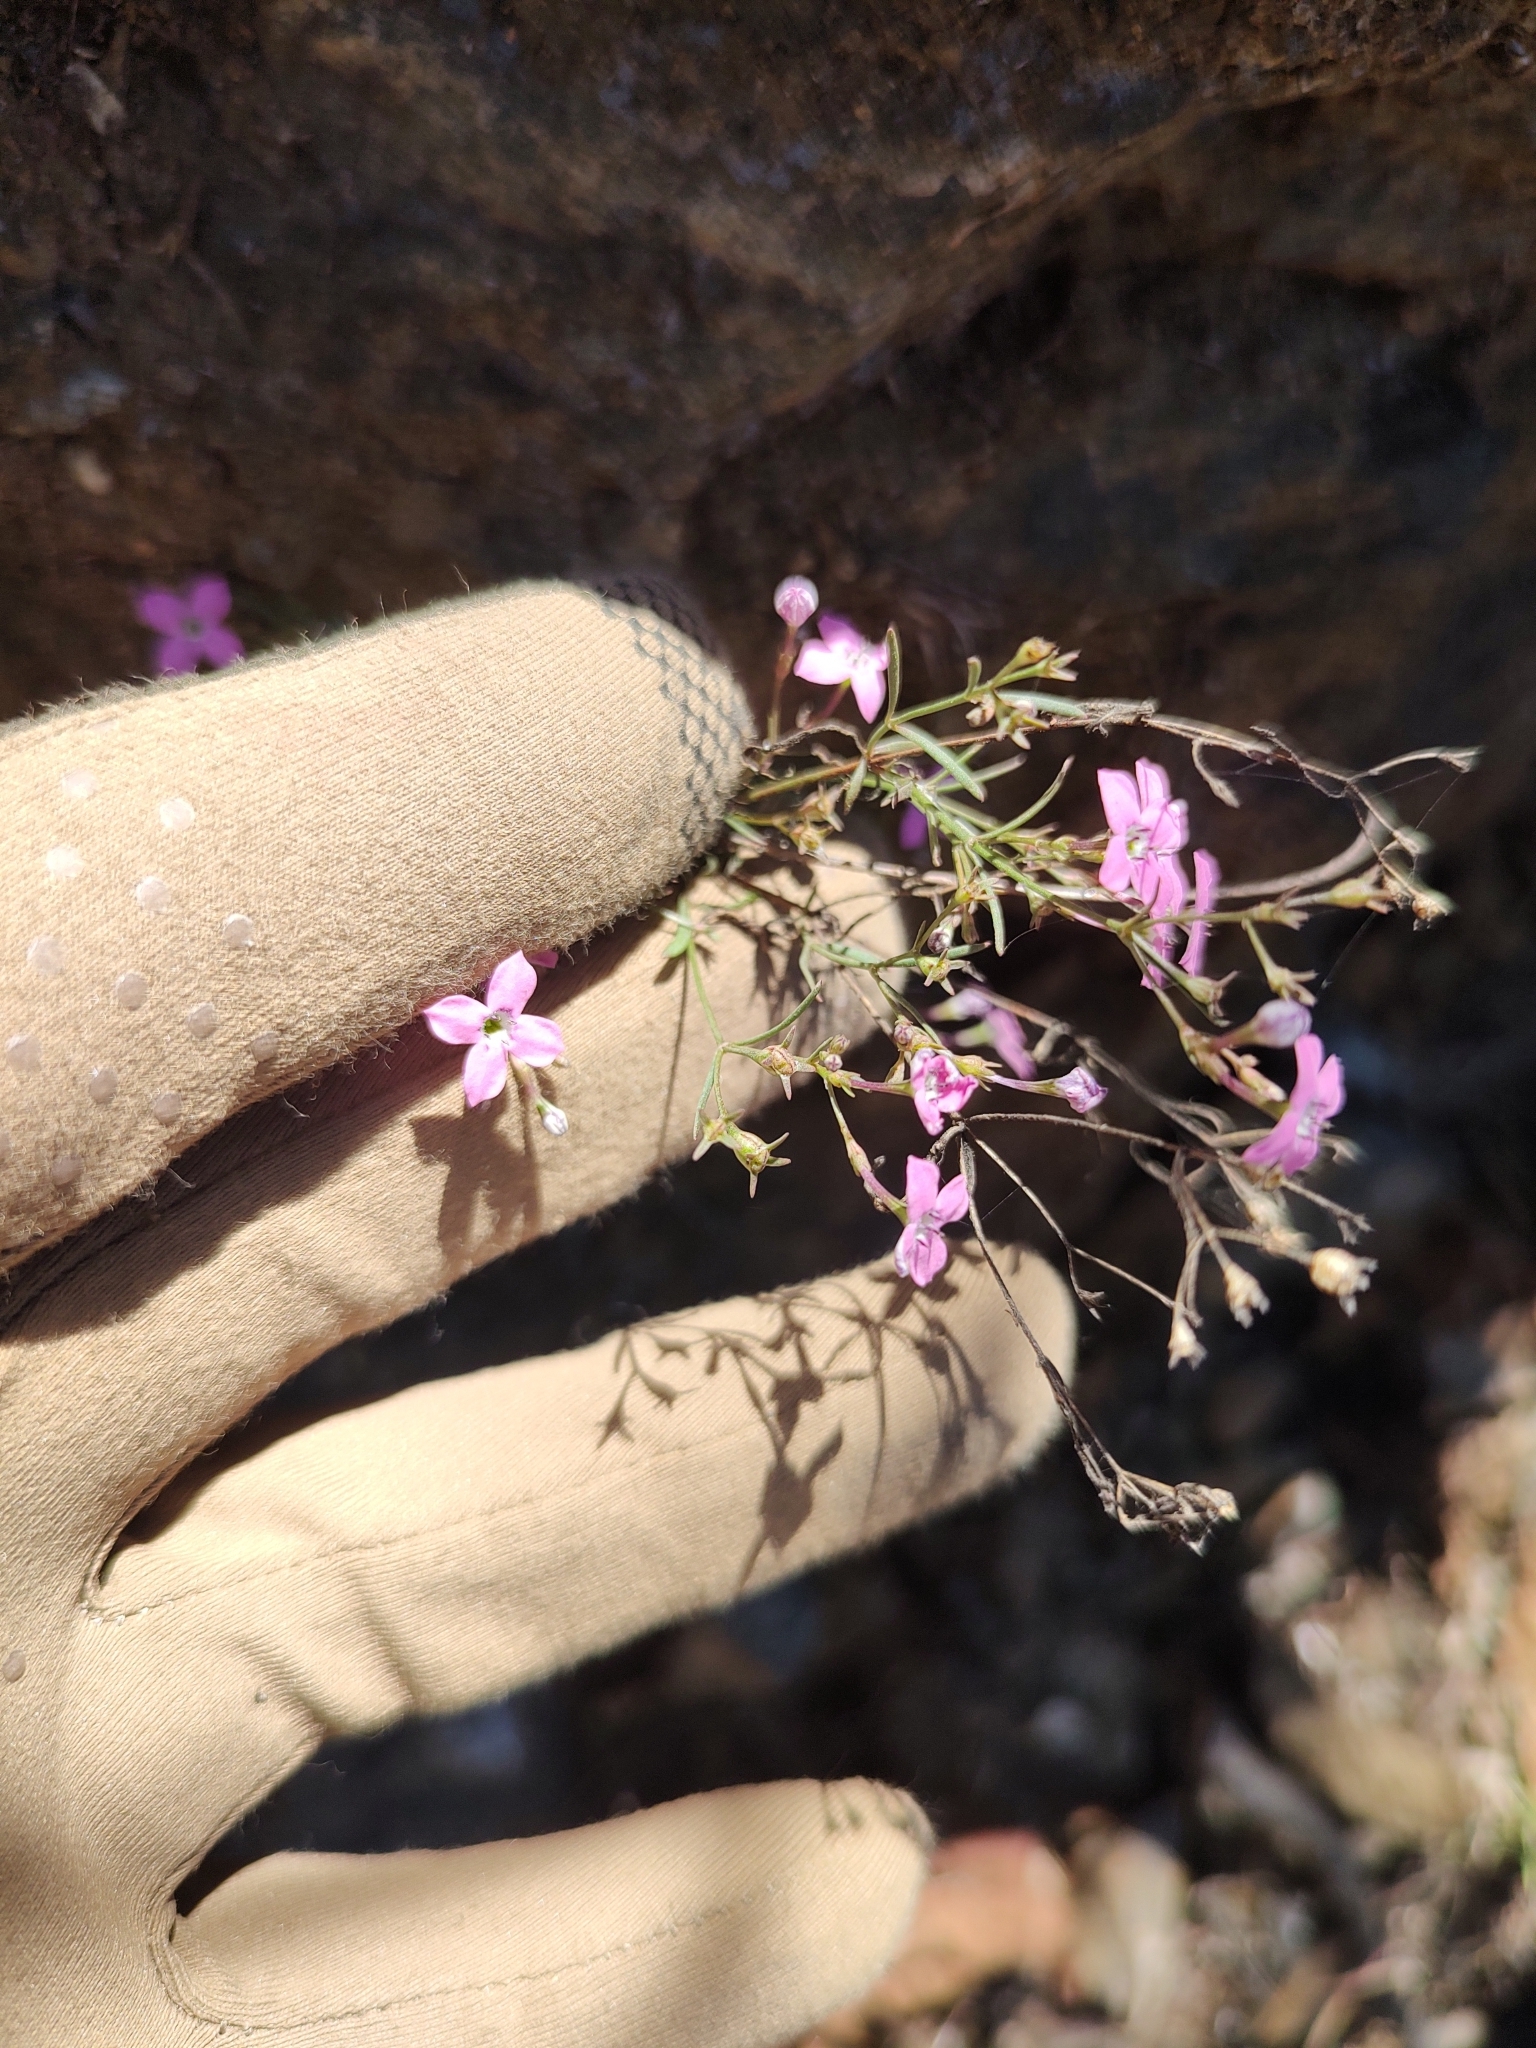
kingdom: Plantae
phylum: Tracheophyta
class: Magnoliopsida
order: Gentianales
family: Rubiaceae
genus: Stenotis
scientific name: Stenotis brevipes
